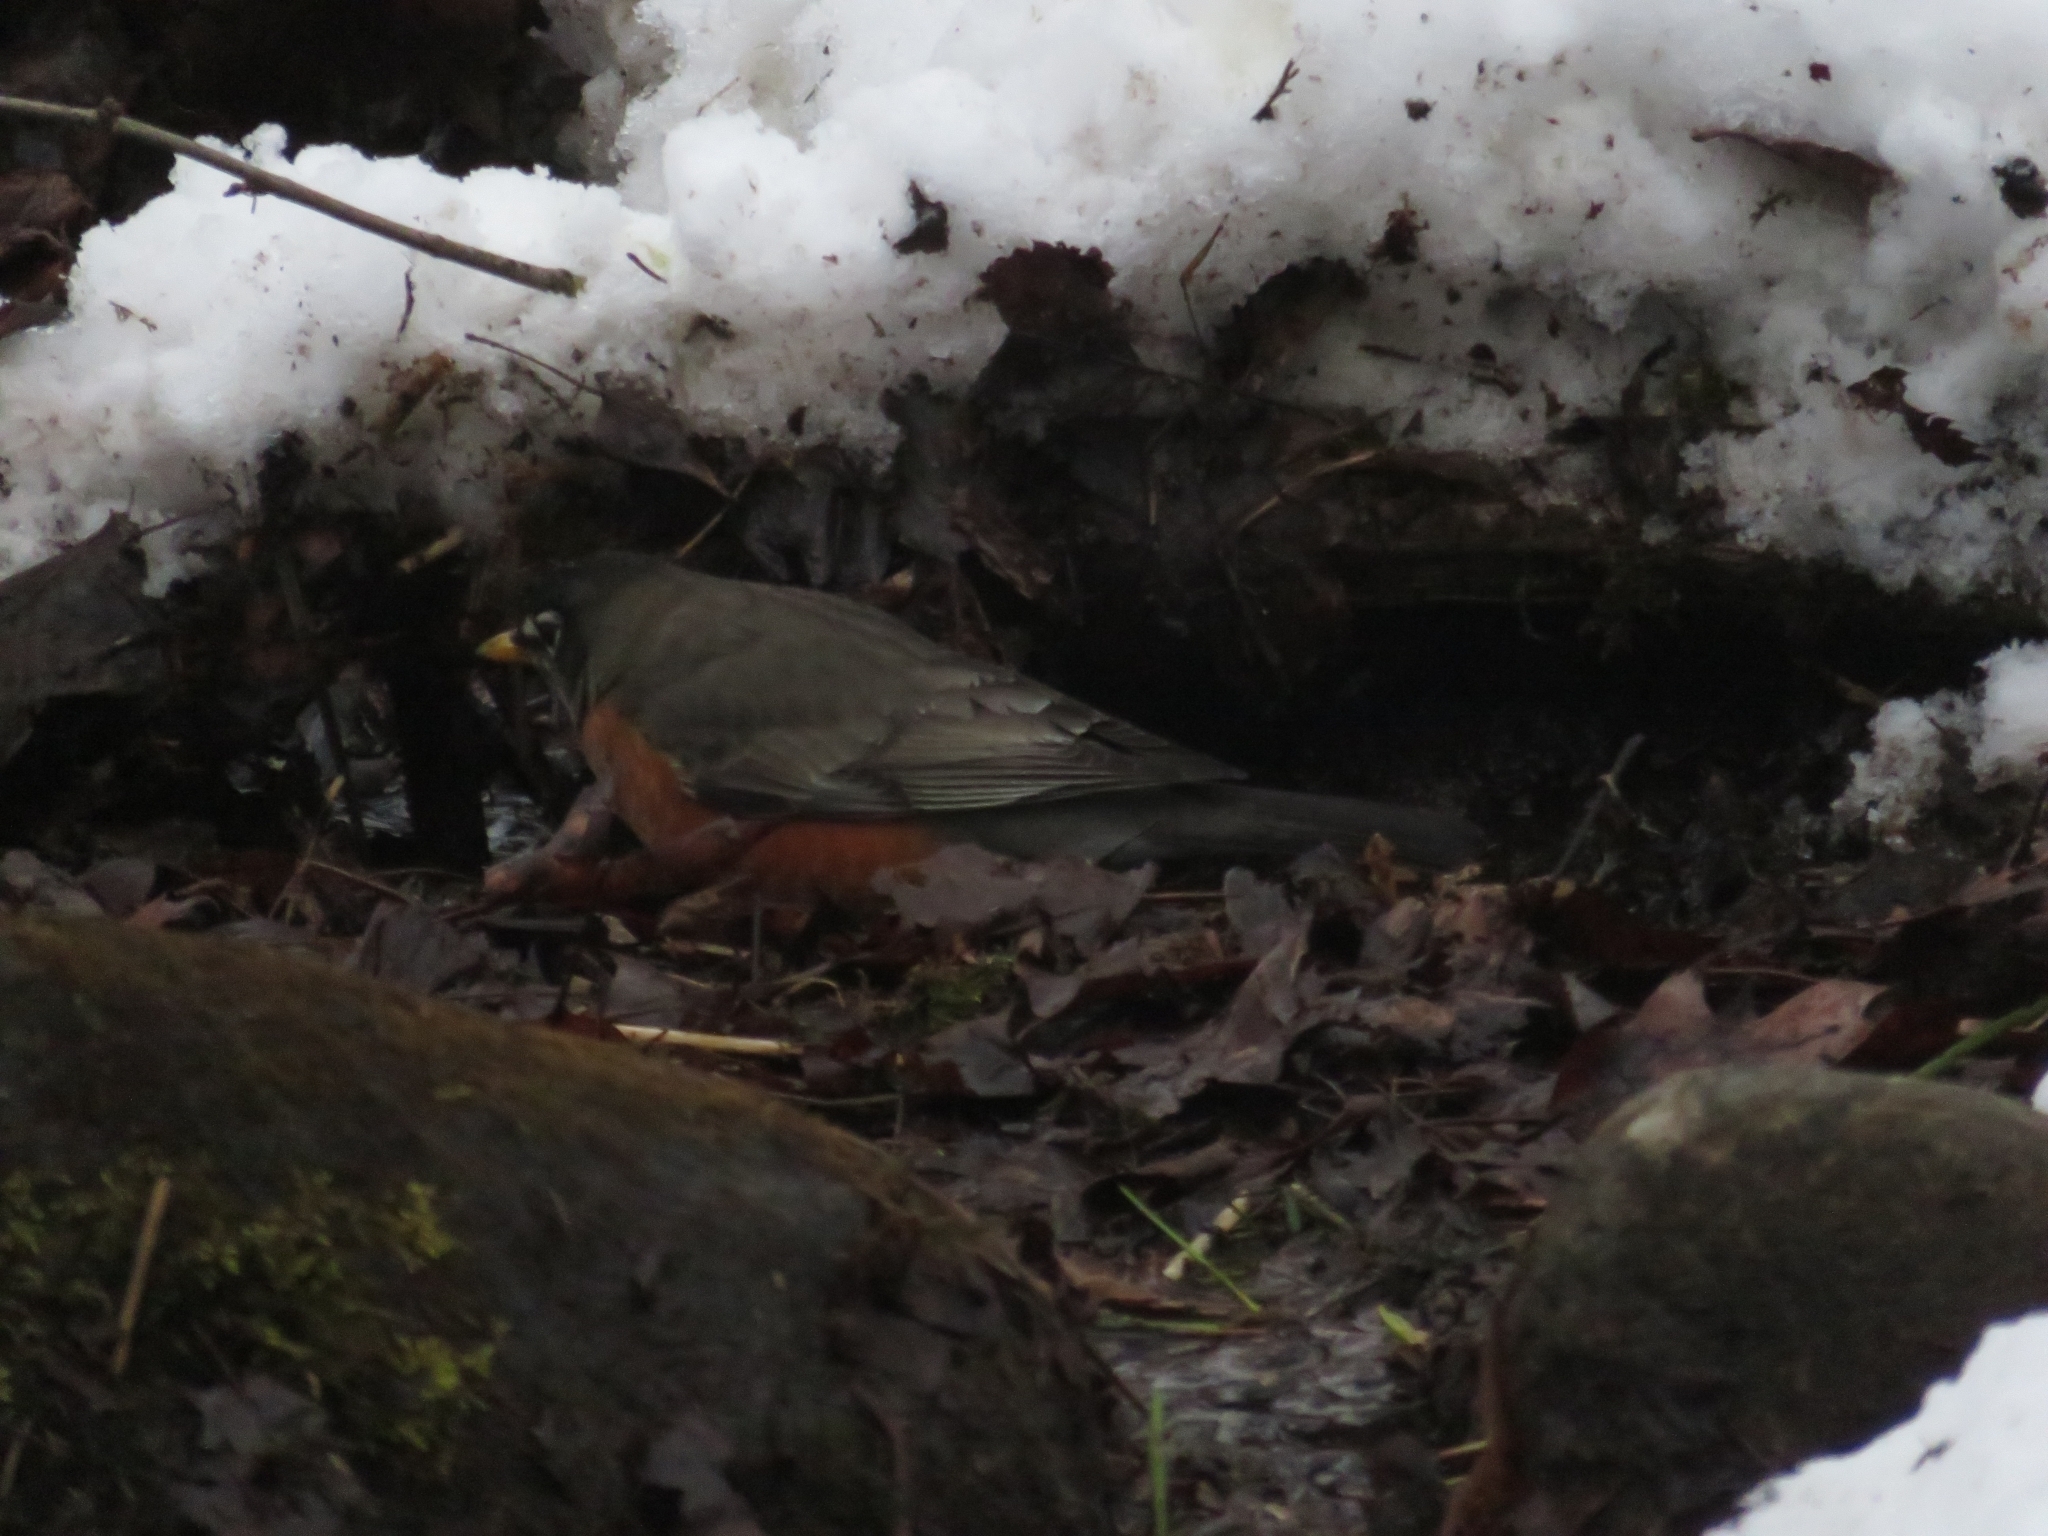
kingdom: Animalia
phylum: Chordata
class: Aves
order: Passeriformes
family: Turdidae
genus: Turdus
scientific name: Turdus migratorius
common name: American robin
